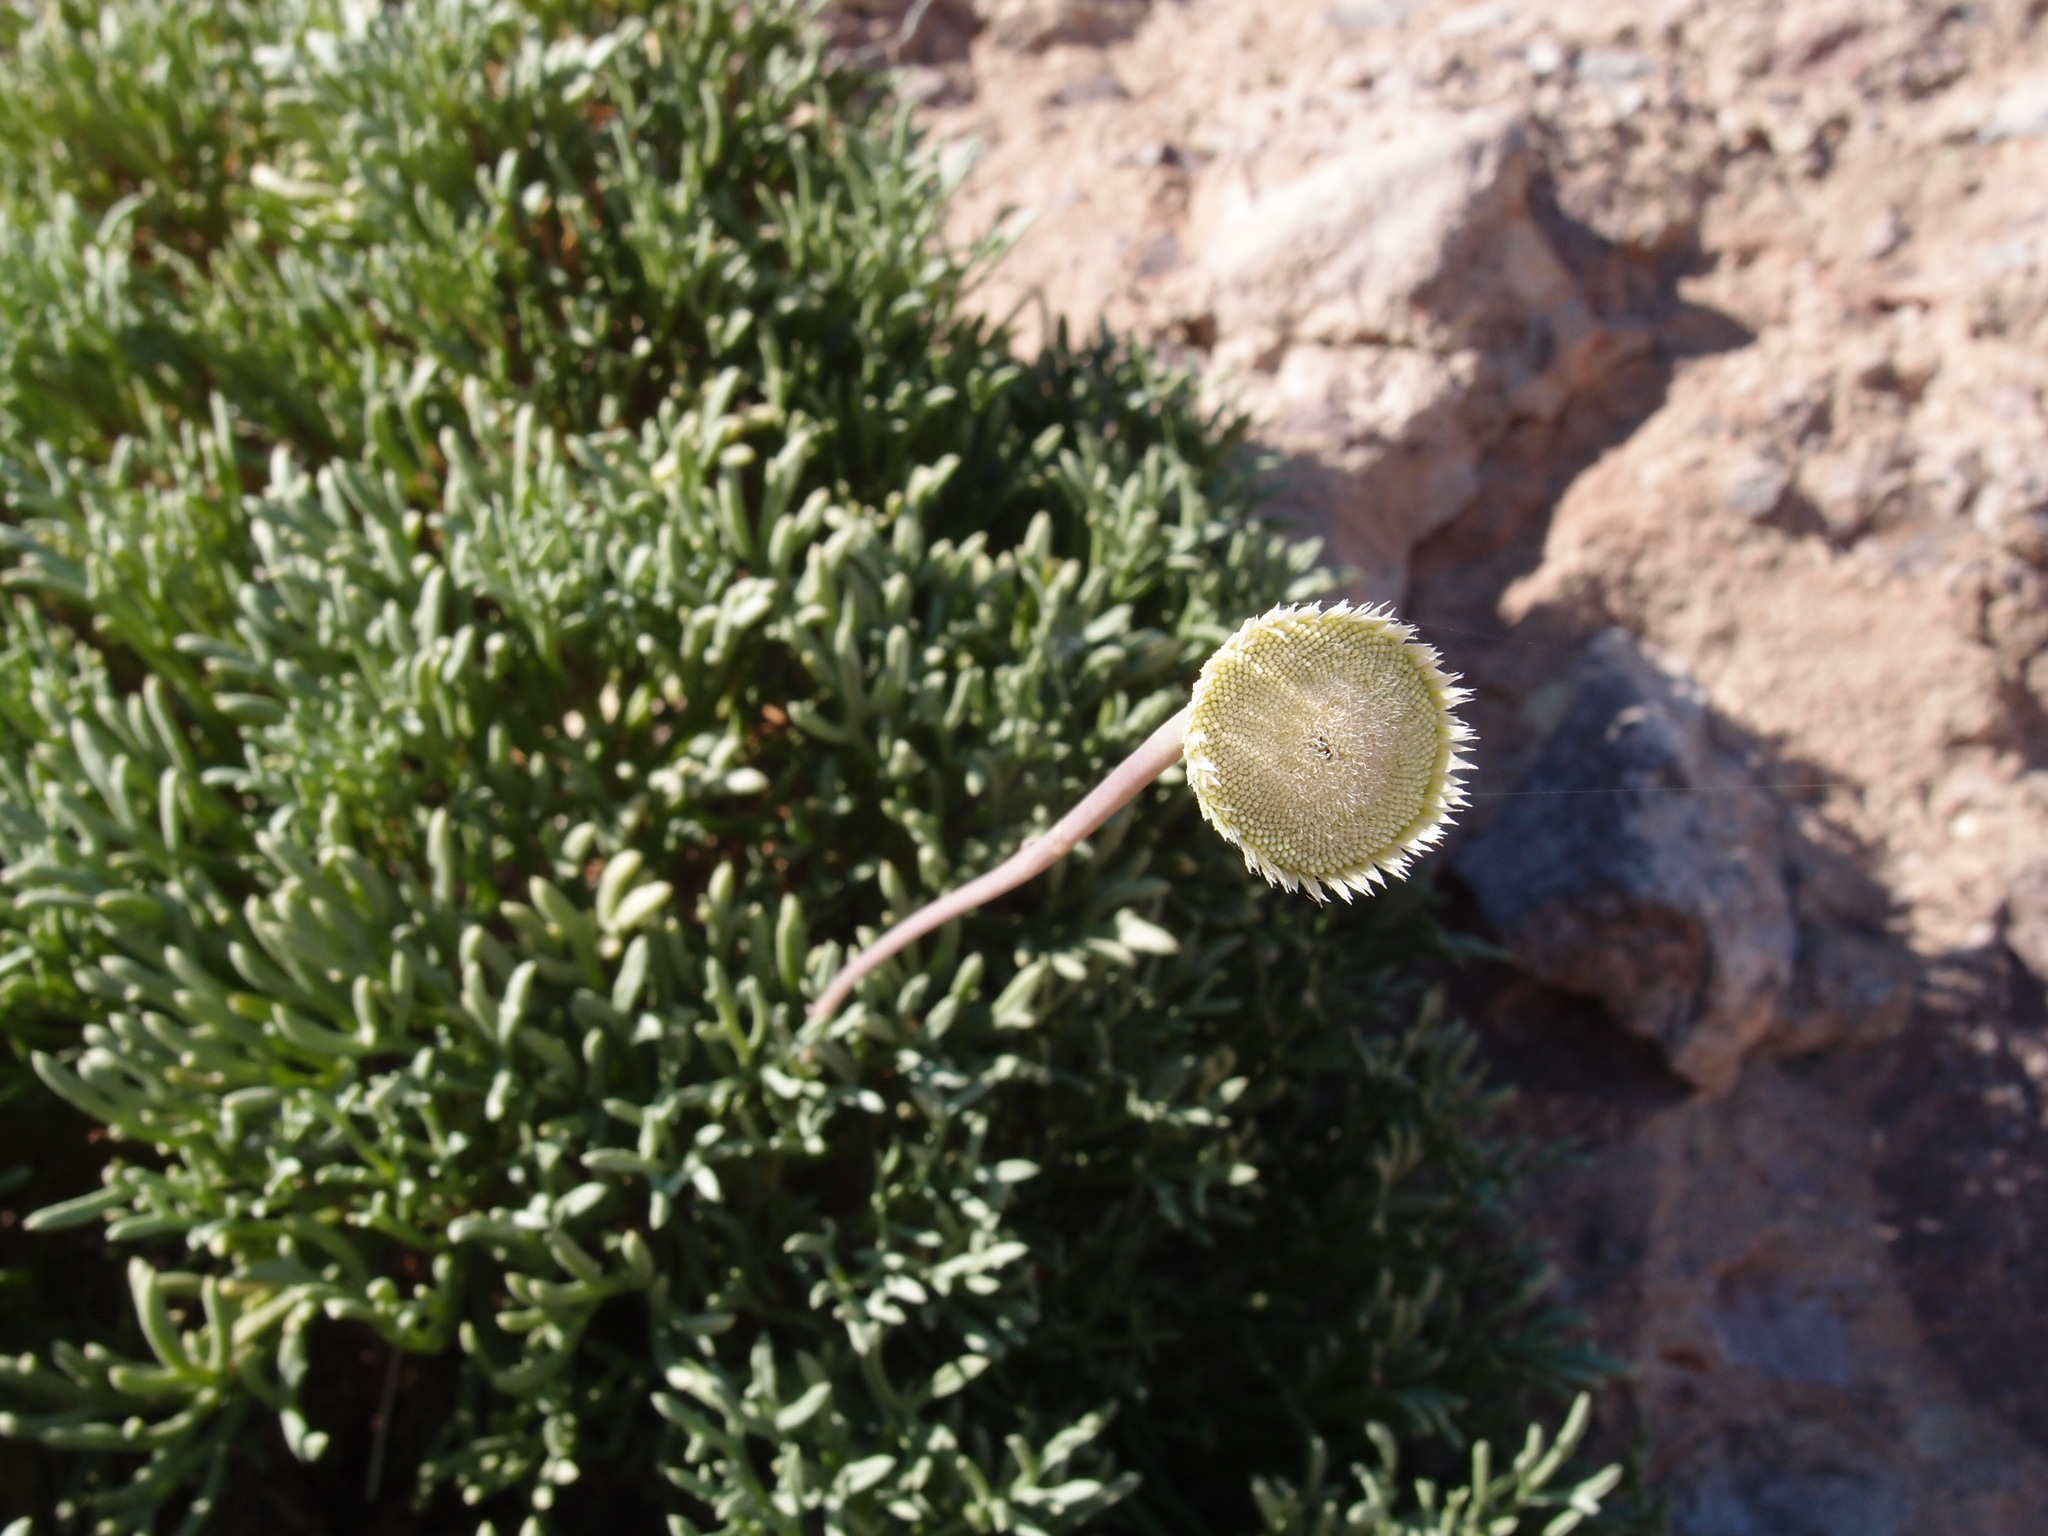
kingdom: Plantae
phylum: Tracheophyta
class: Magnoliopsida
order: Asterales
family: Asteraceae
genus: Hofmeisteria
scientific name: Hofmeisteria crassifolia
